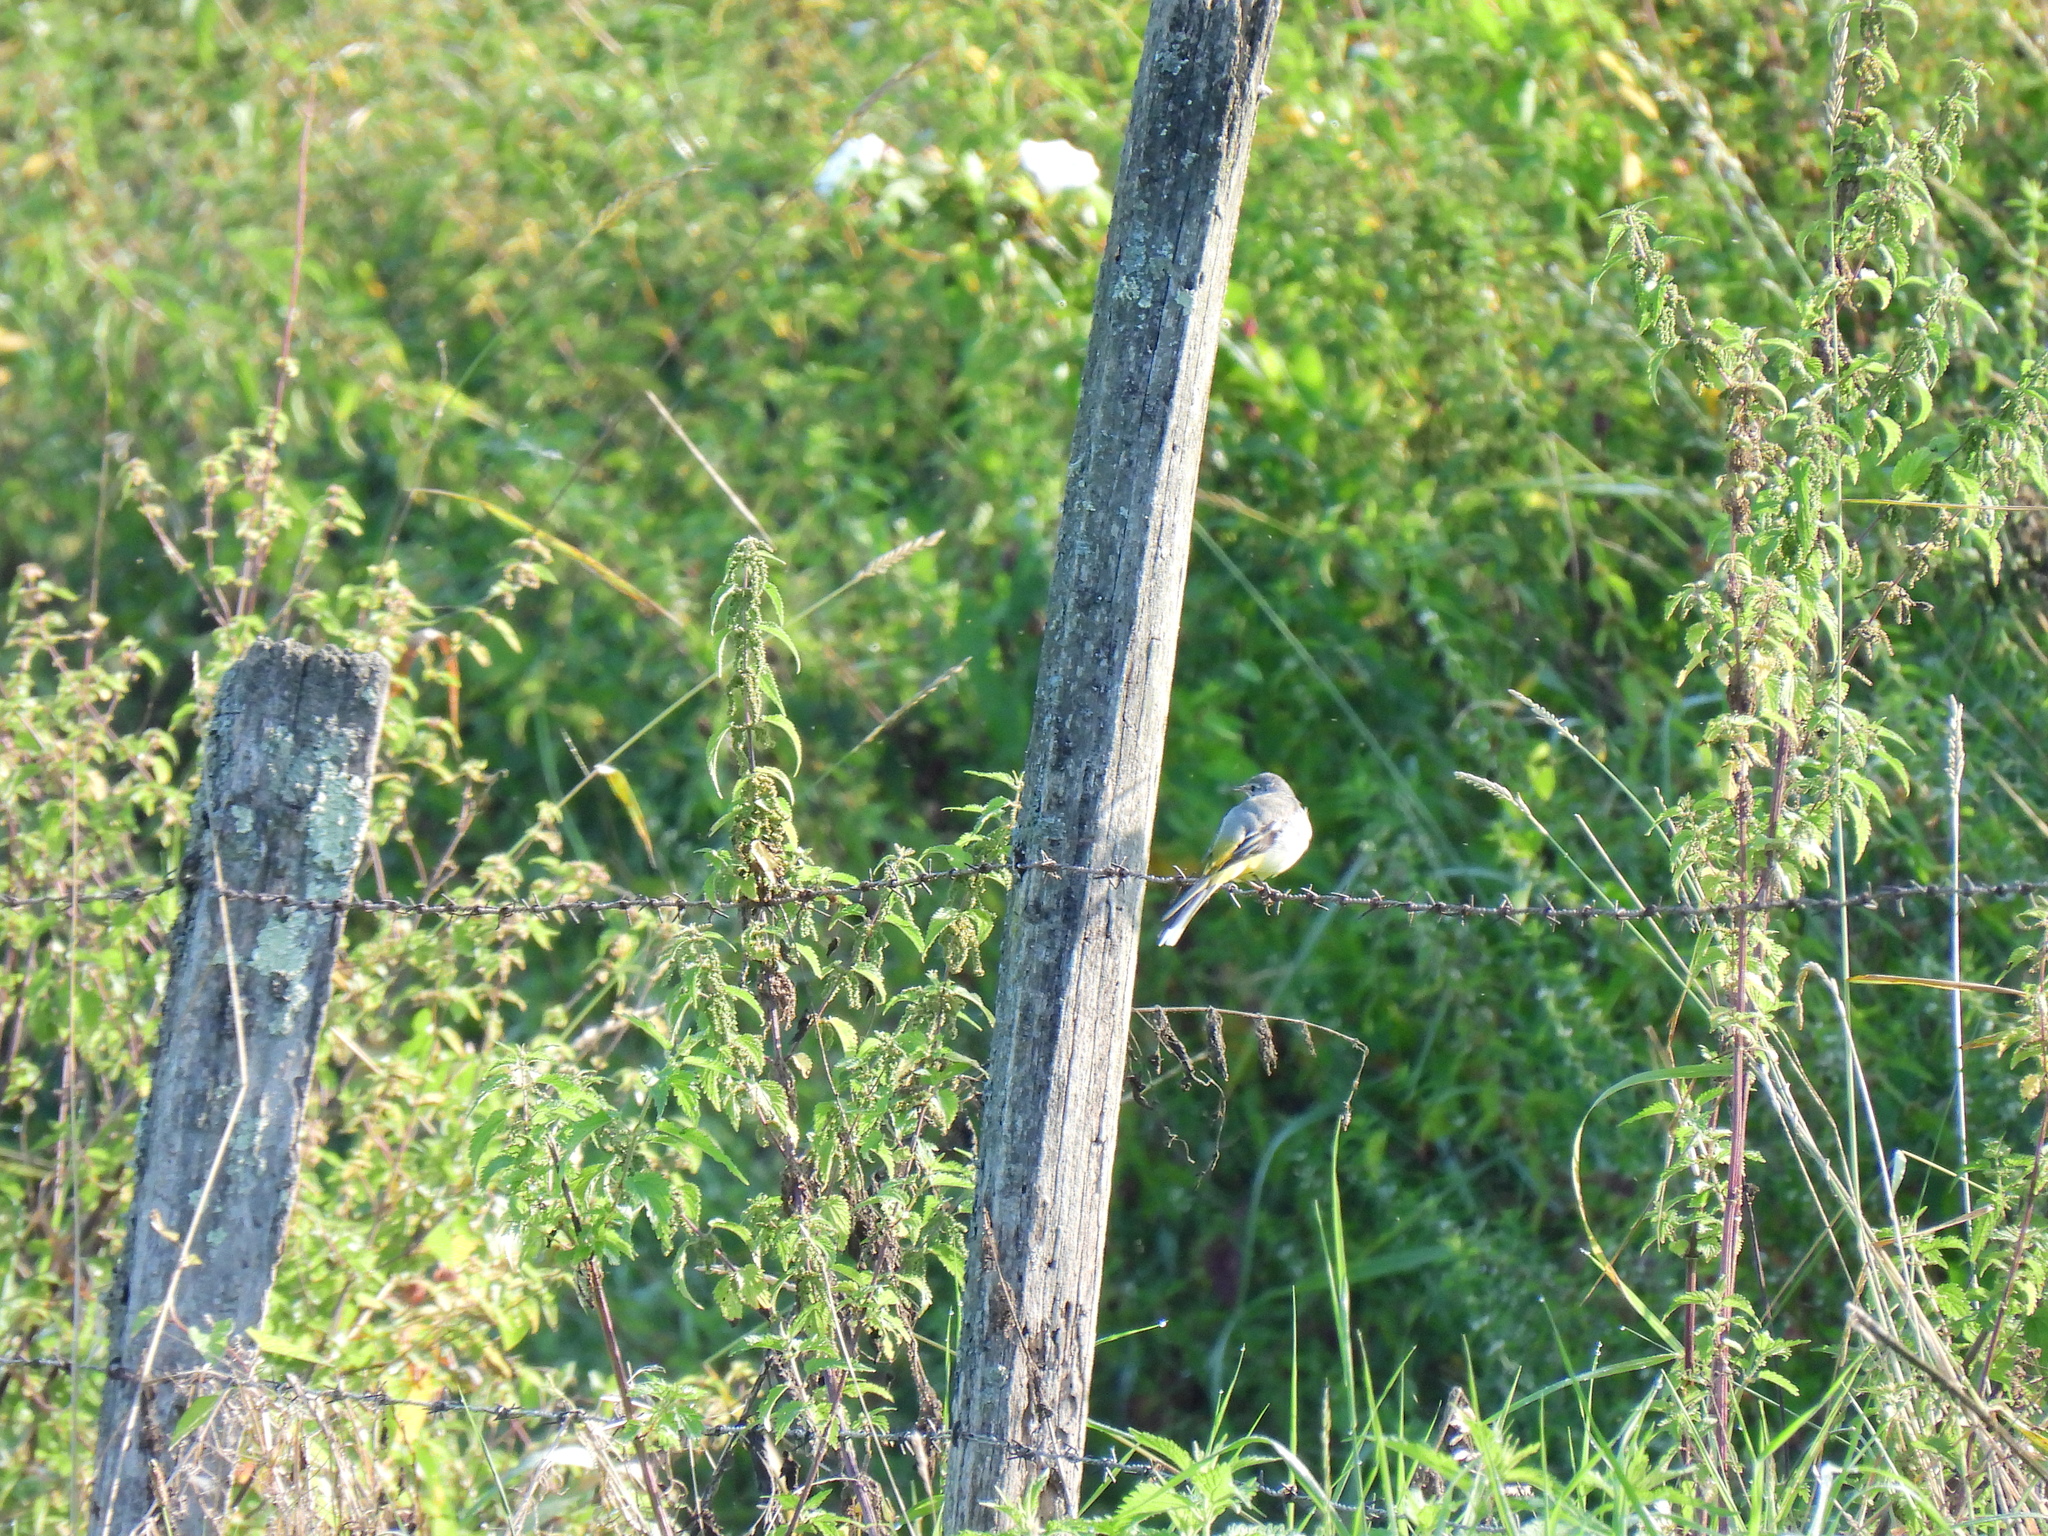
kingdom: Animalia
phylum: Chordata
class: Aves
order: Passeriformes
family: Motacillidae
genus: Motacilla
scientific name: Motacilla cinerea
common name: Grey wagtail
